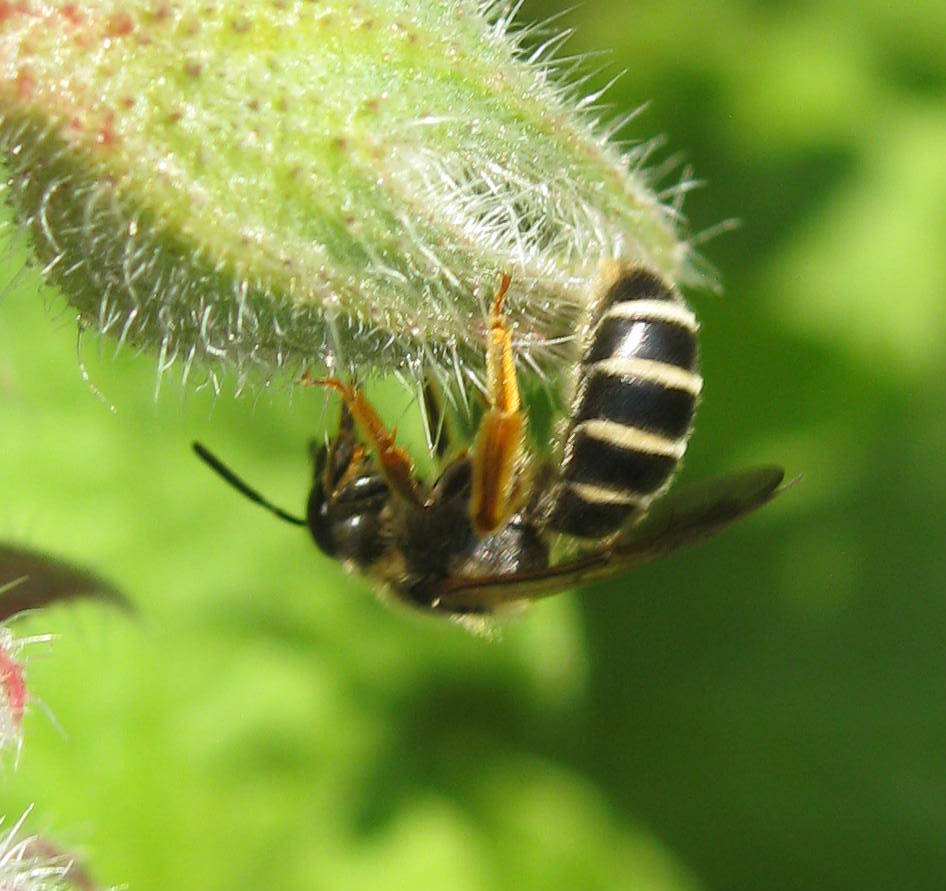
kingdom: Animalia
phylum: Arthropoda
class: Insecta
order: Hymenoptera
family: Halictidae
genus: Halictus
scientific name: Halictus rubicundus
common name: Orange-legged furrow bee
